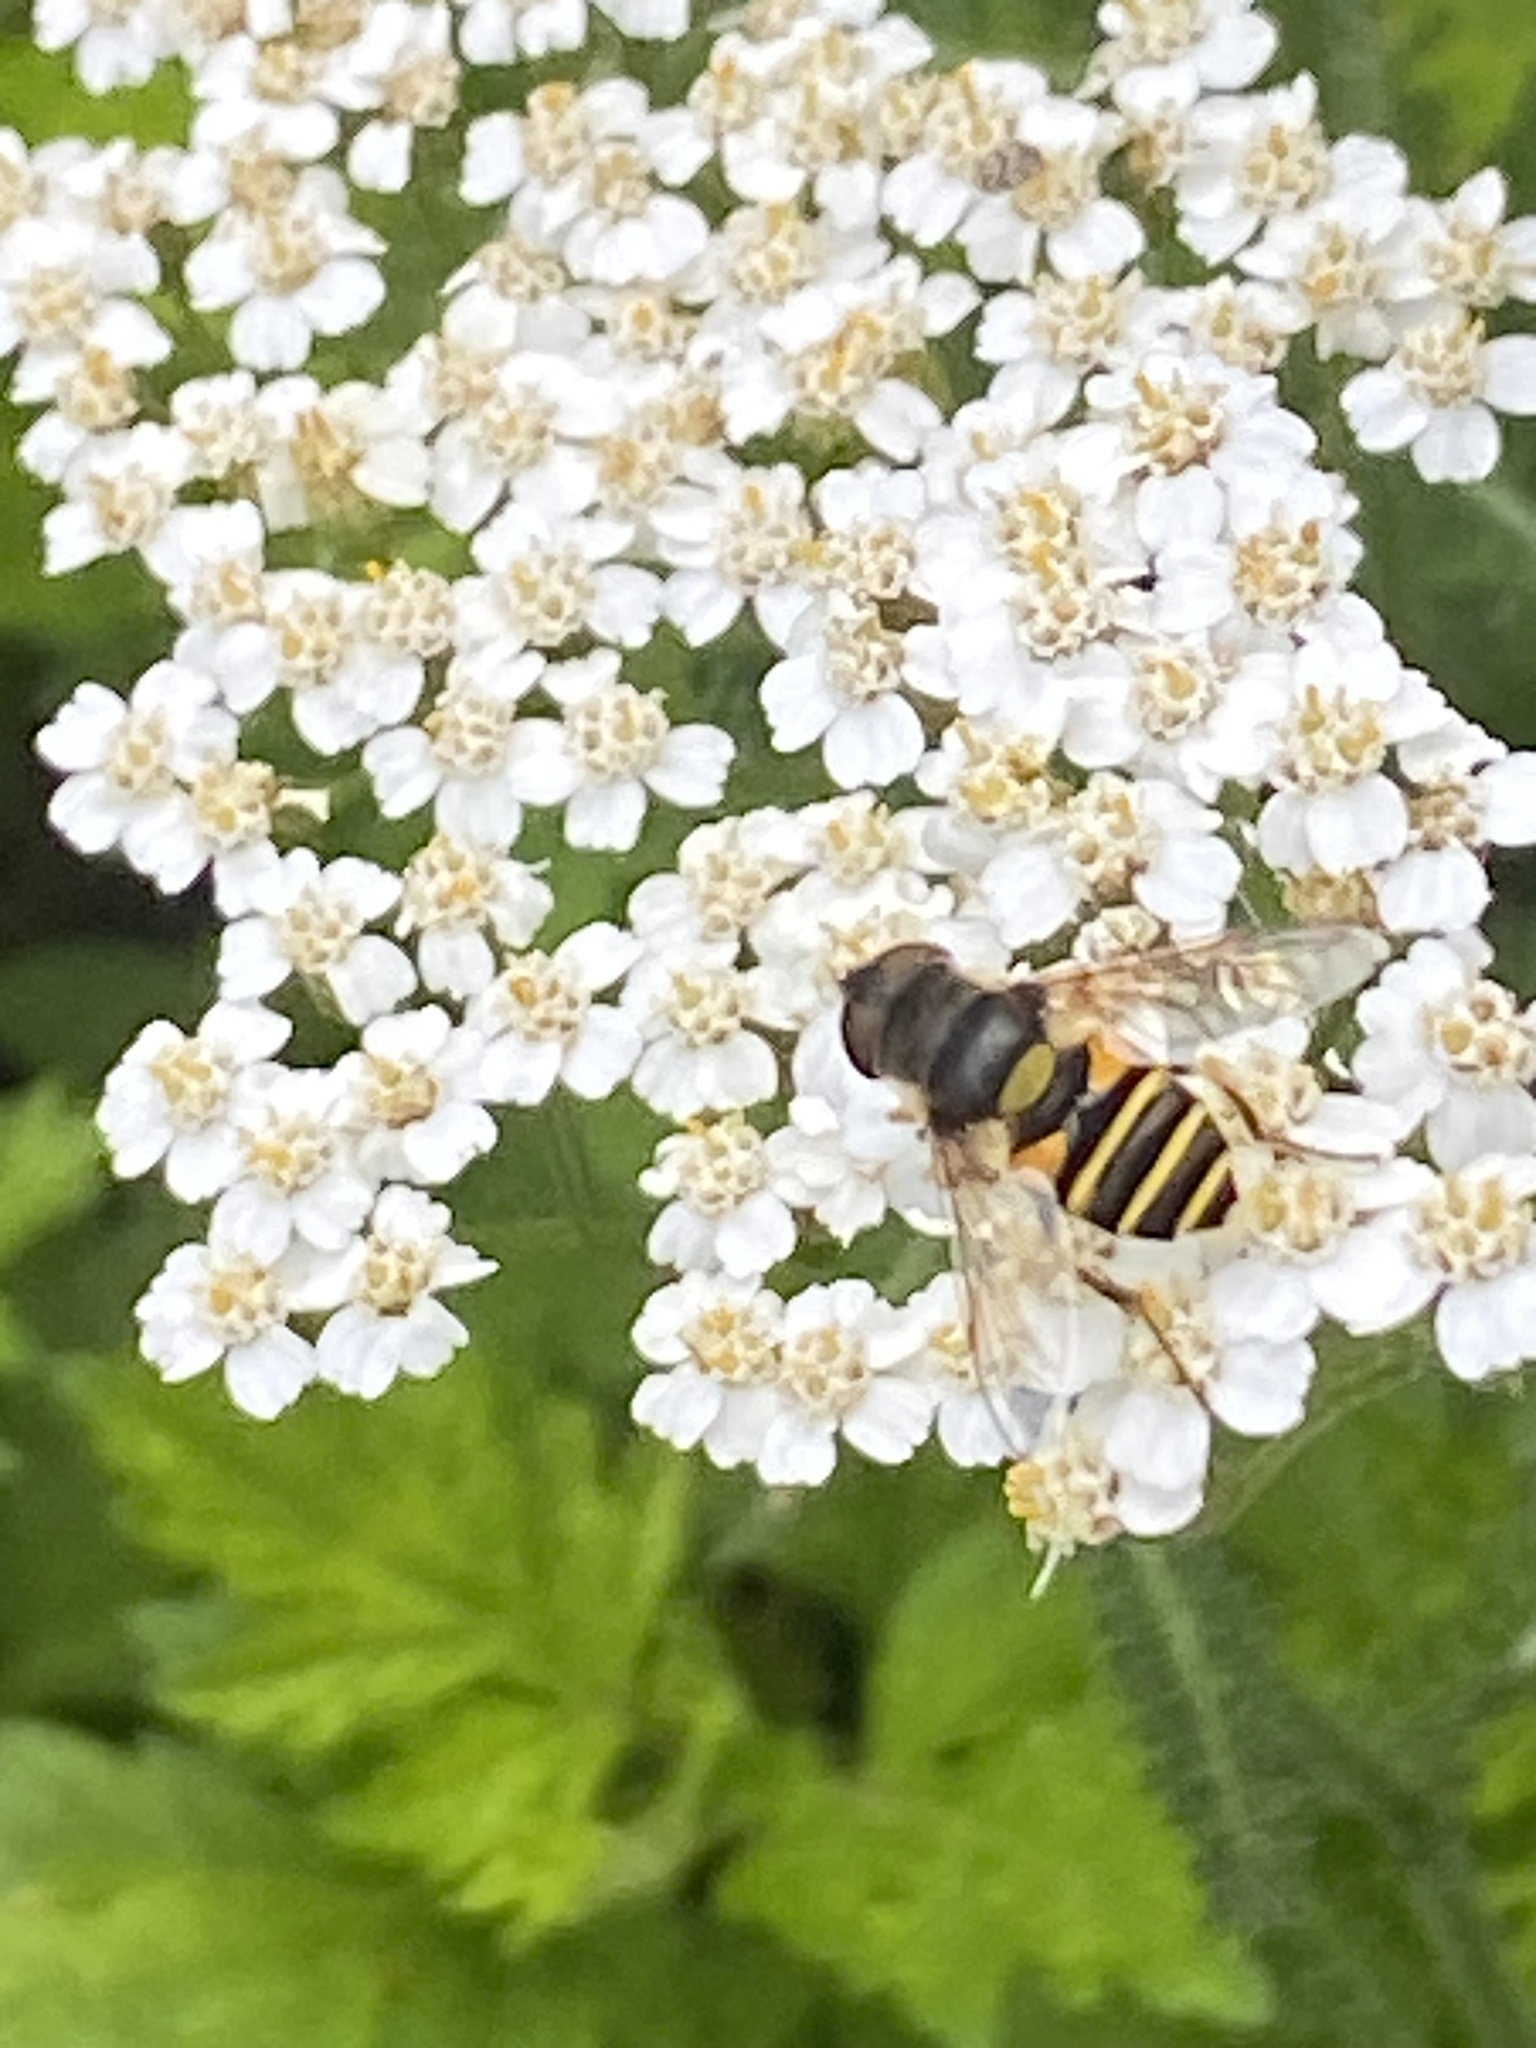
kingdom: Animalia
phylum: Arthropoda
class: Insecta
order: Diptera
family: Syrphidae
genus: Eristalis
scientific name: Eristalis transversa
